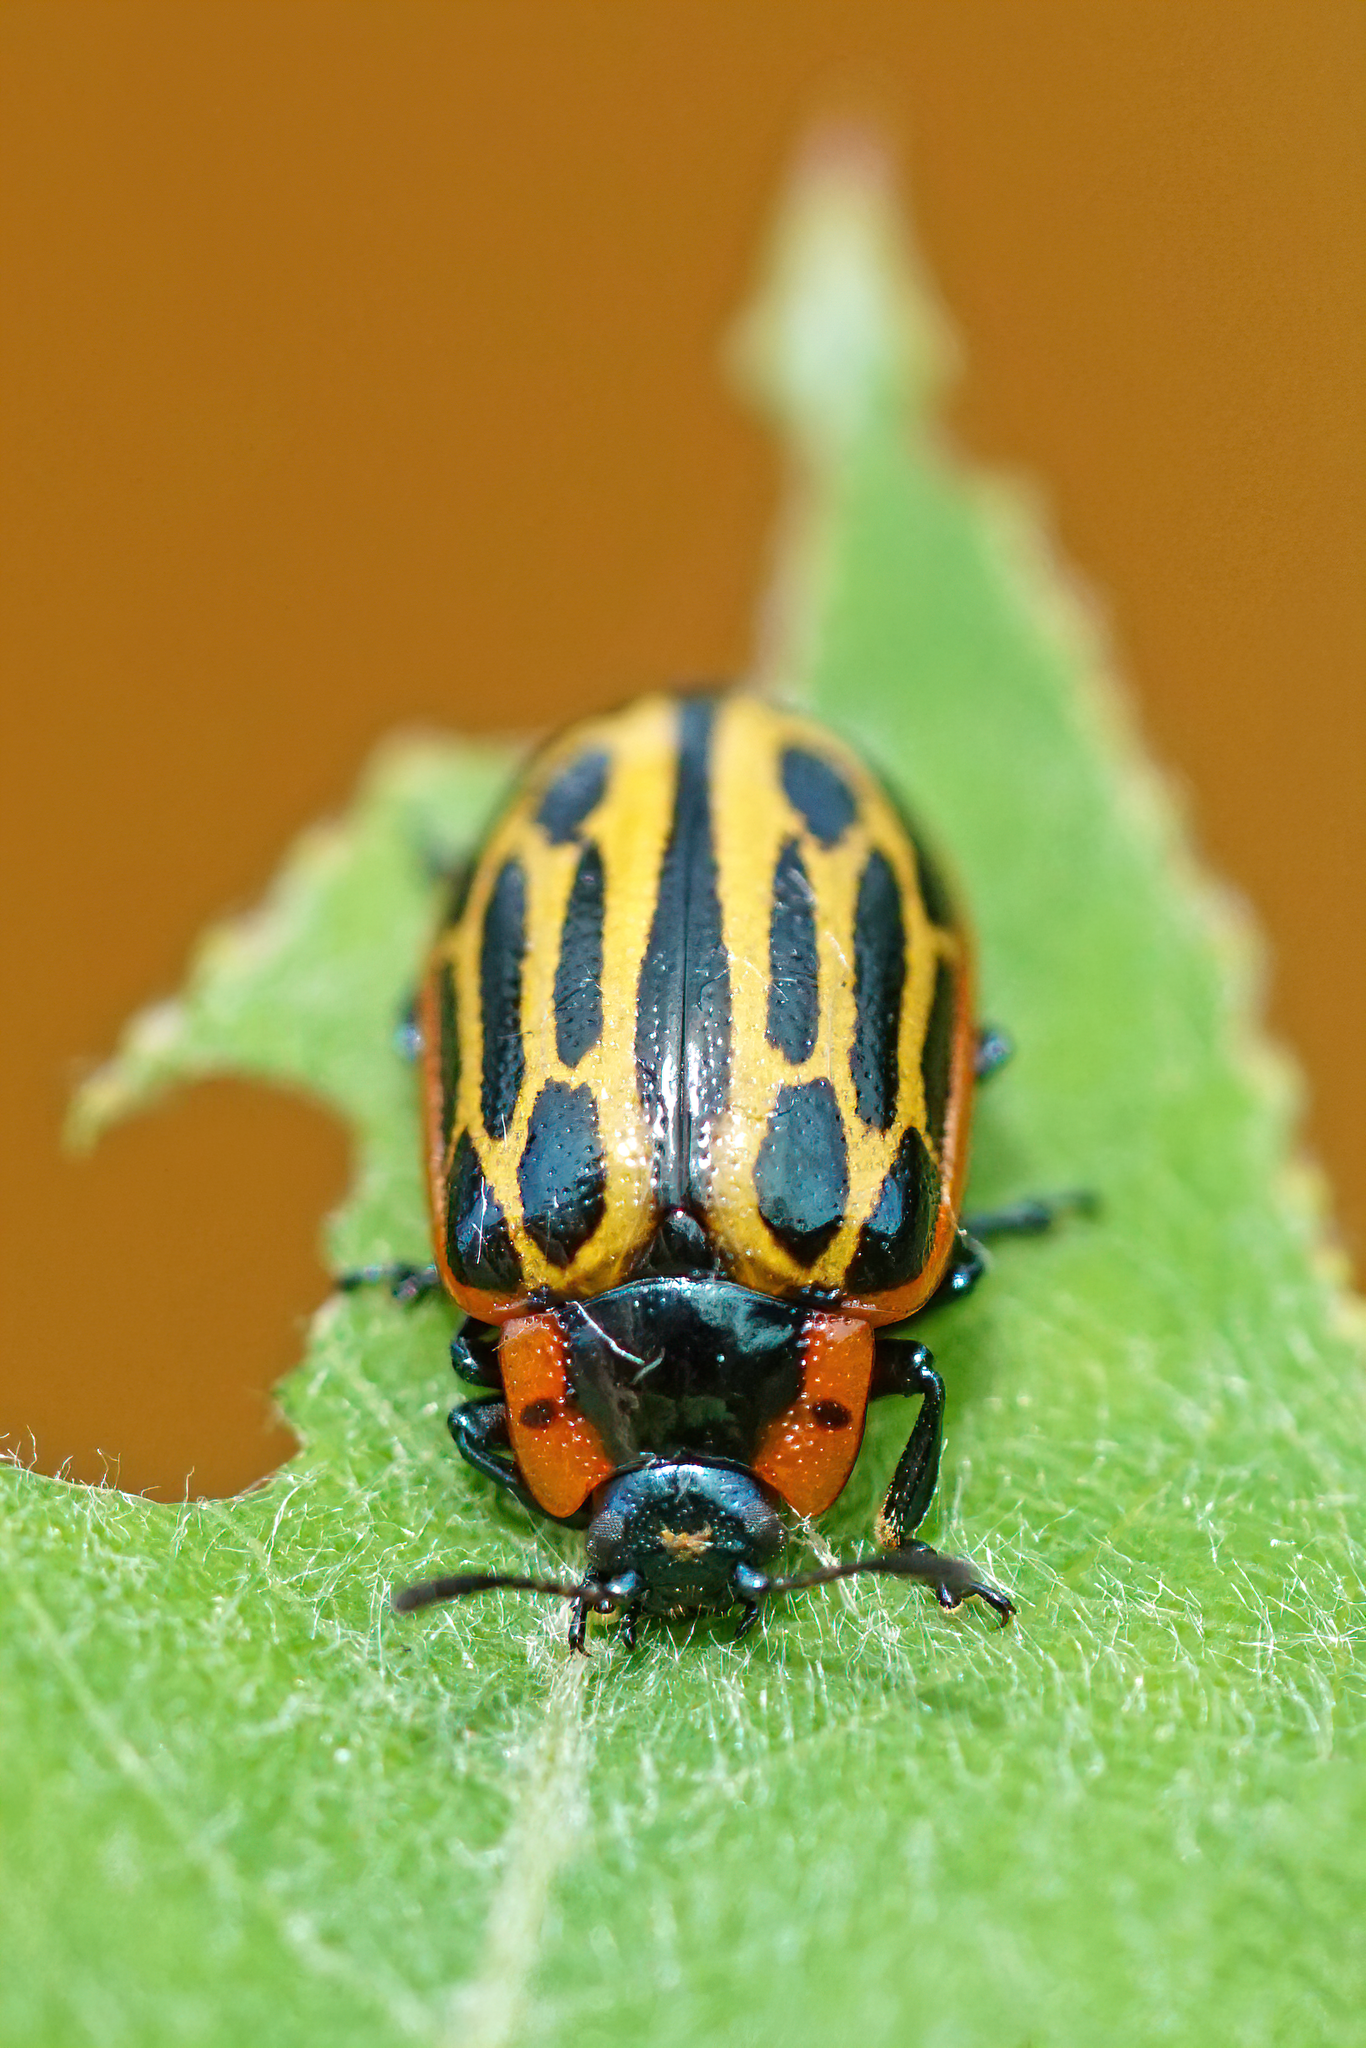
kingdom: Animalia
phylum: Arthropoda
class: Insecta
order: Coleoptera
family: Chrysomelidae
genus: Aethiopocassis
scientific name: Aethiopocassis scripta
